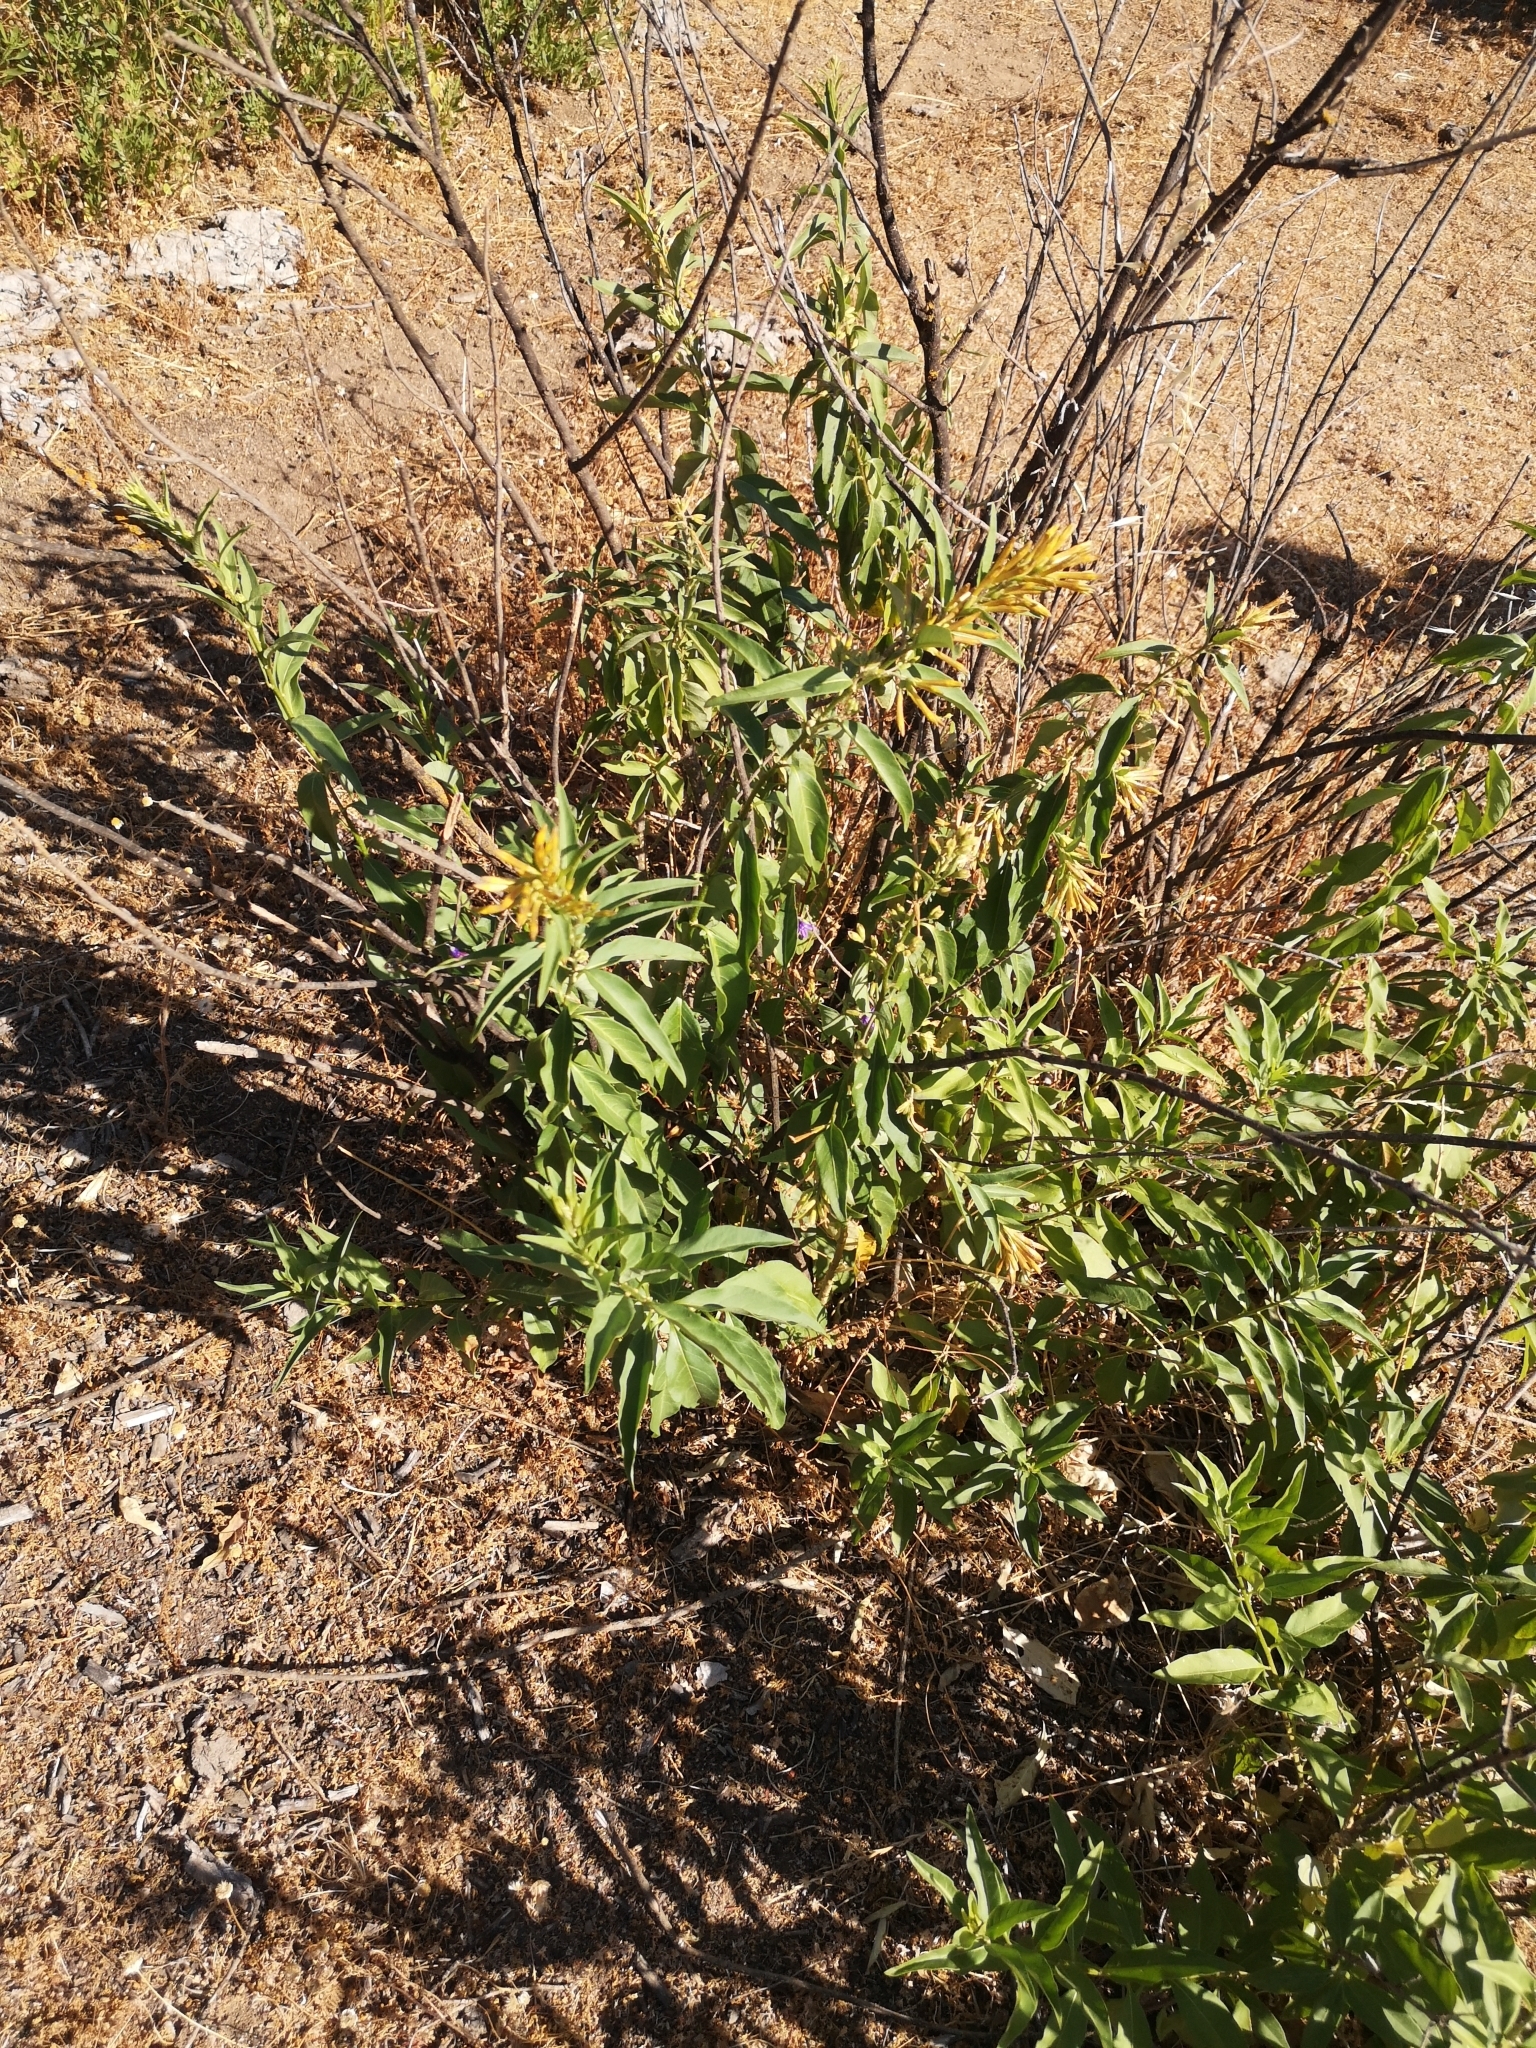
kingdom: Plantae
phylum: Tracheophyta
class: Magnoliopsida
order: Solanales
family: Solanaceae
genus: Cestrum
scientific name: Cestrum parqui
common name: Chilean cestrum
